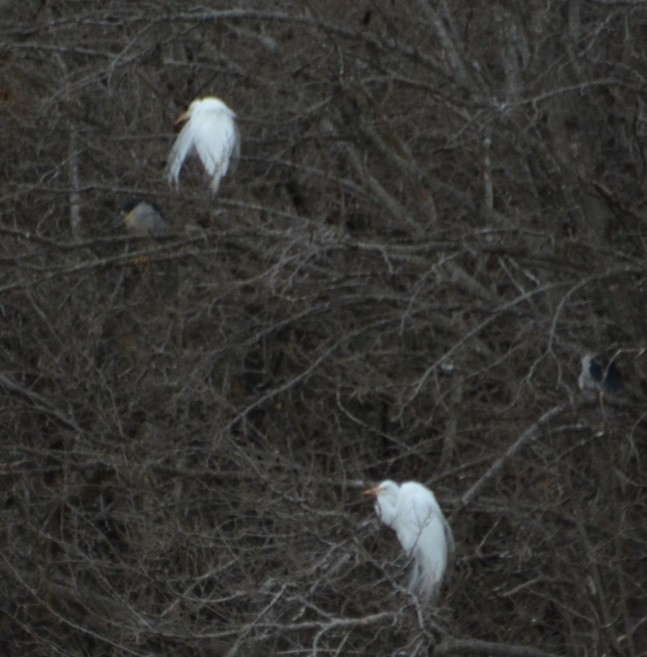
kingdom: Animalia
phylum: Chordata
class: Aves
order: Pelecaniformes
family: Ardeidae
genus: Ardea
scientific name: Ardea alba
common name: Great egret
